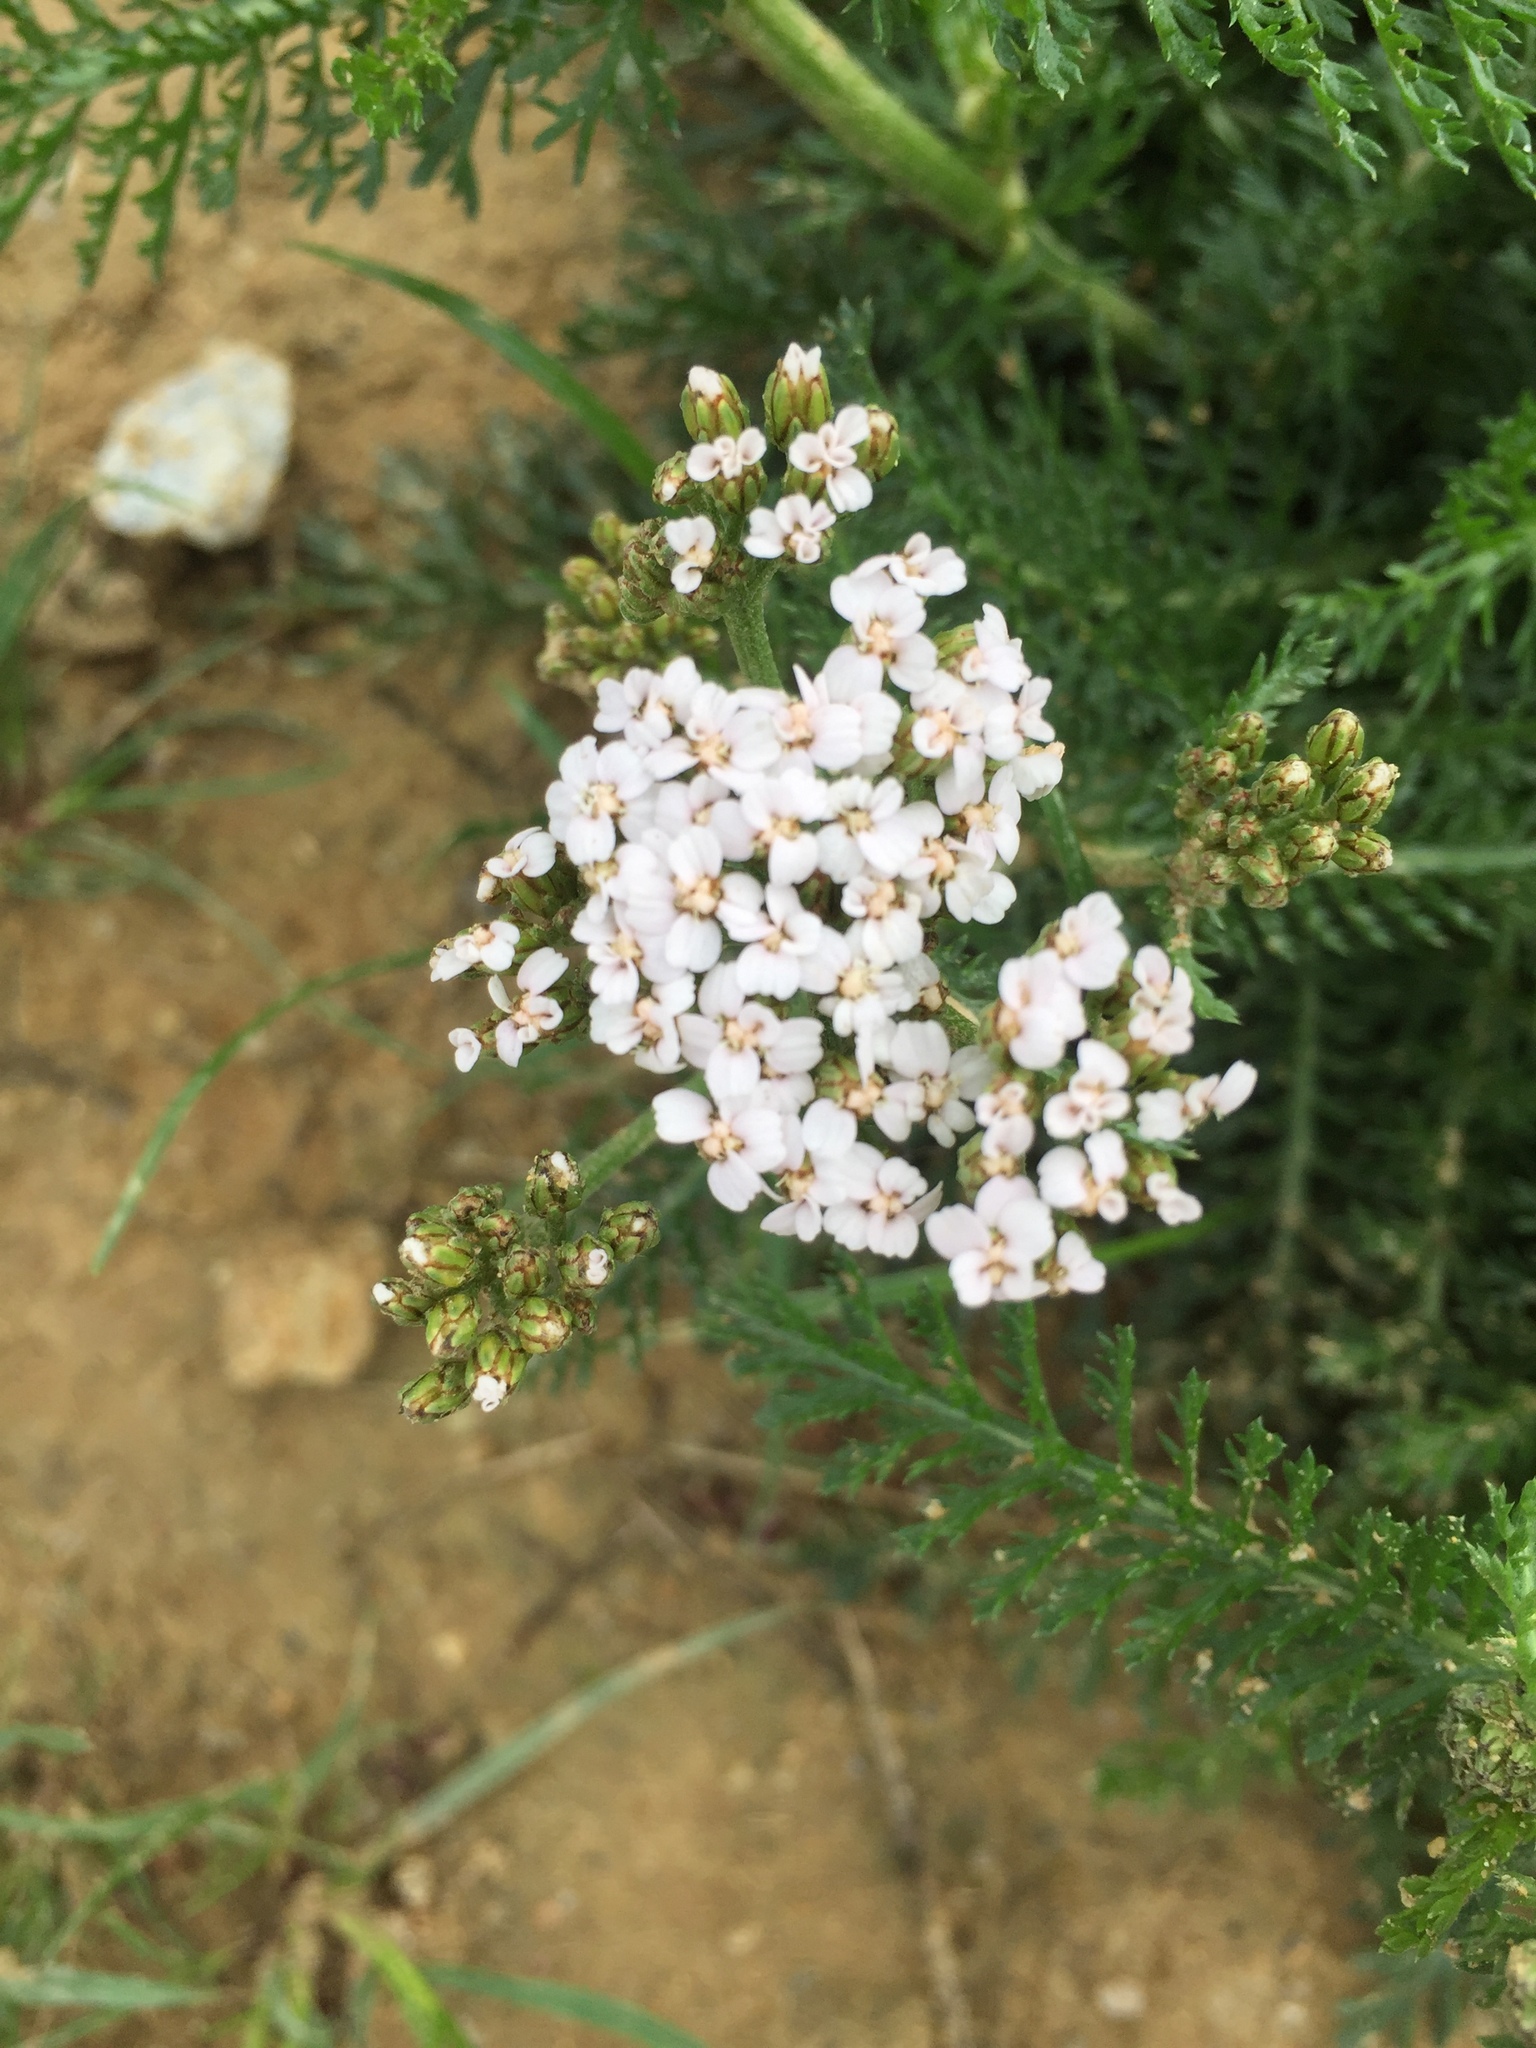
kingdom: Plantae
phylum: Tracheophyta
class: Magnoliopsida
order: Asterales
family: Asteraceae
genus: Achillea
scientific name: Achillea millefolium
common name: Yarrow
